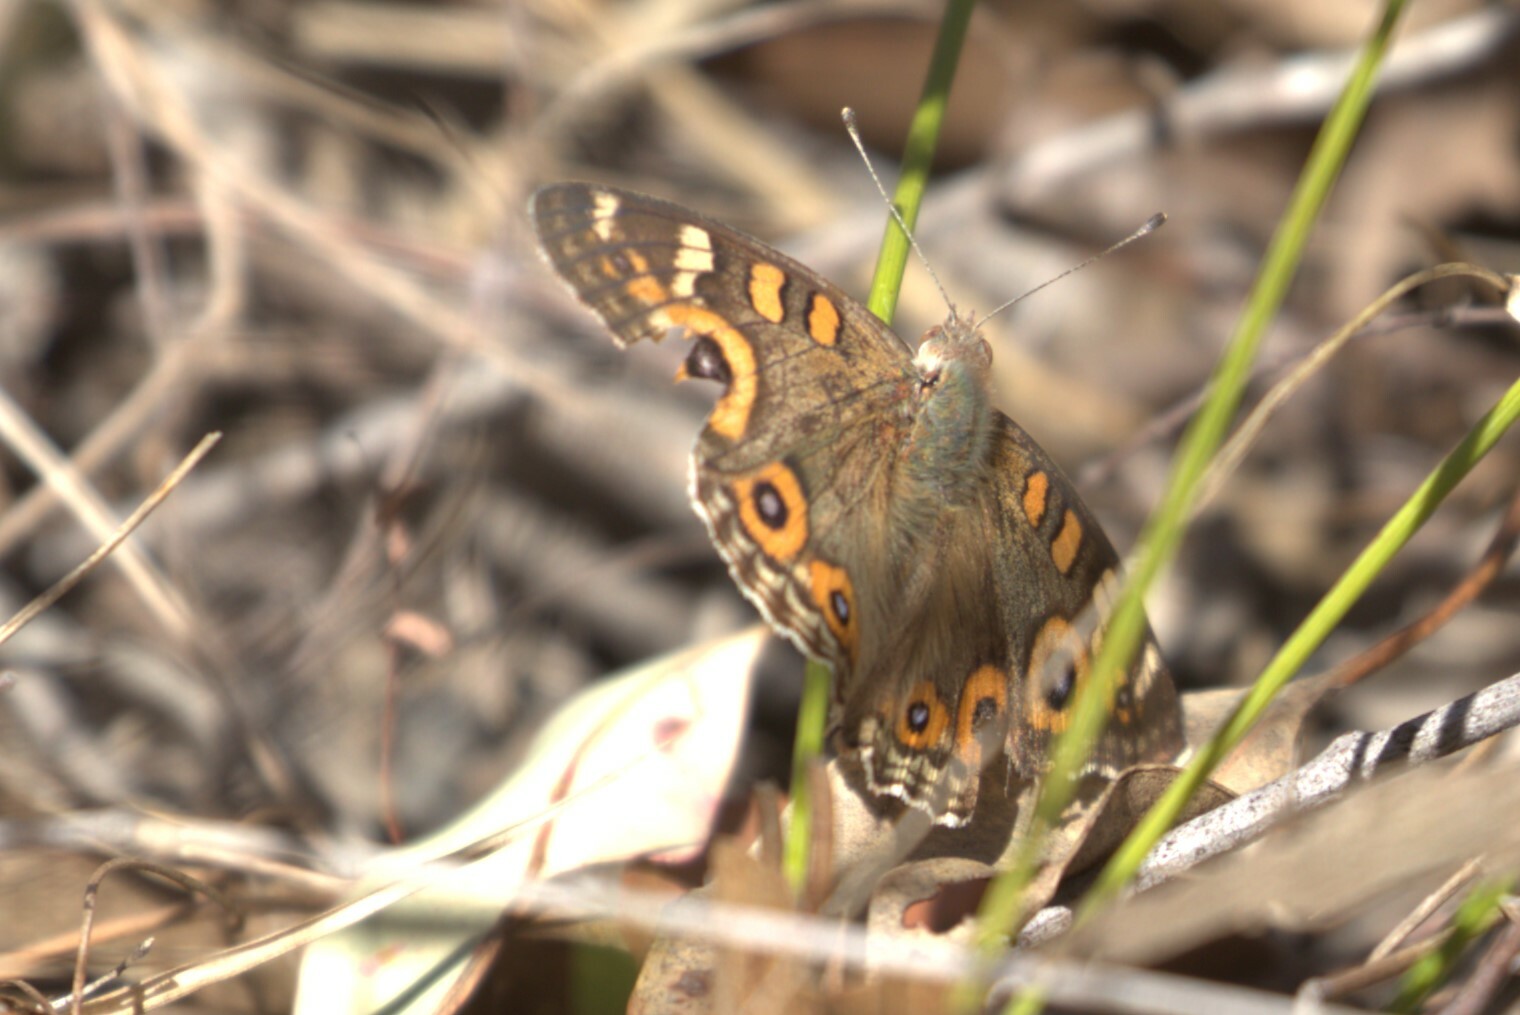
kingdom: Animalia
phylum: Arthropoda
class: Insecta
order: Lepidoptera
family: Nymphalidae
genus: Junonia
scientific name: Junonia villida
